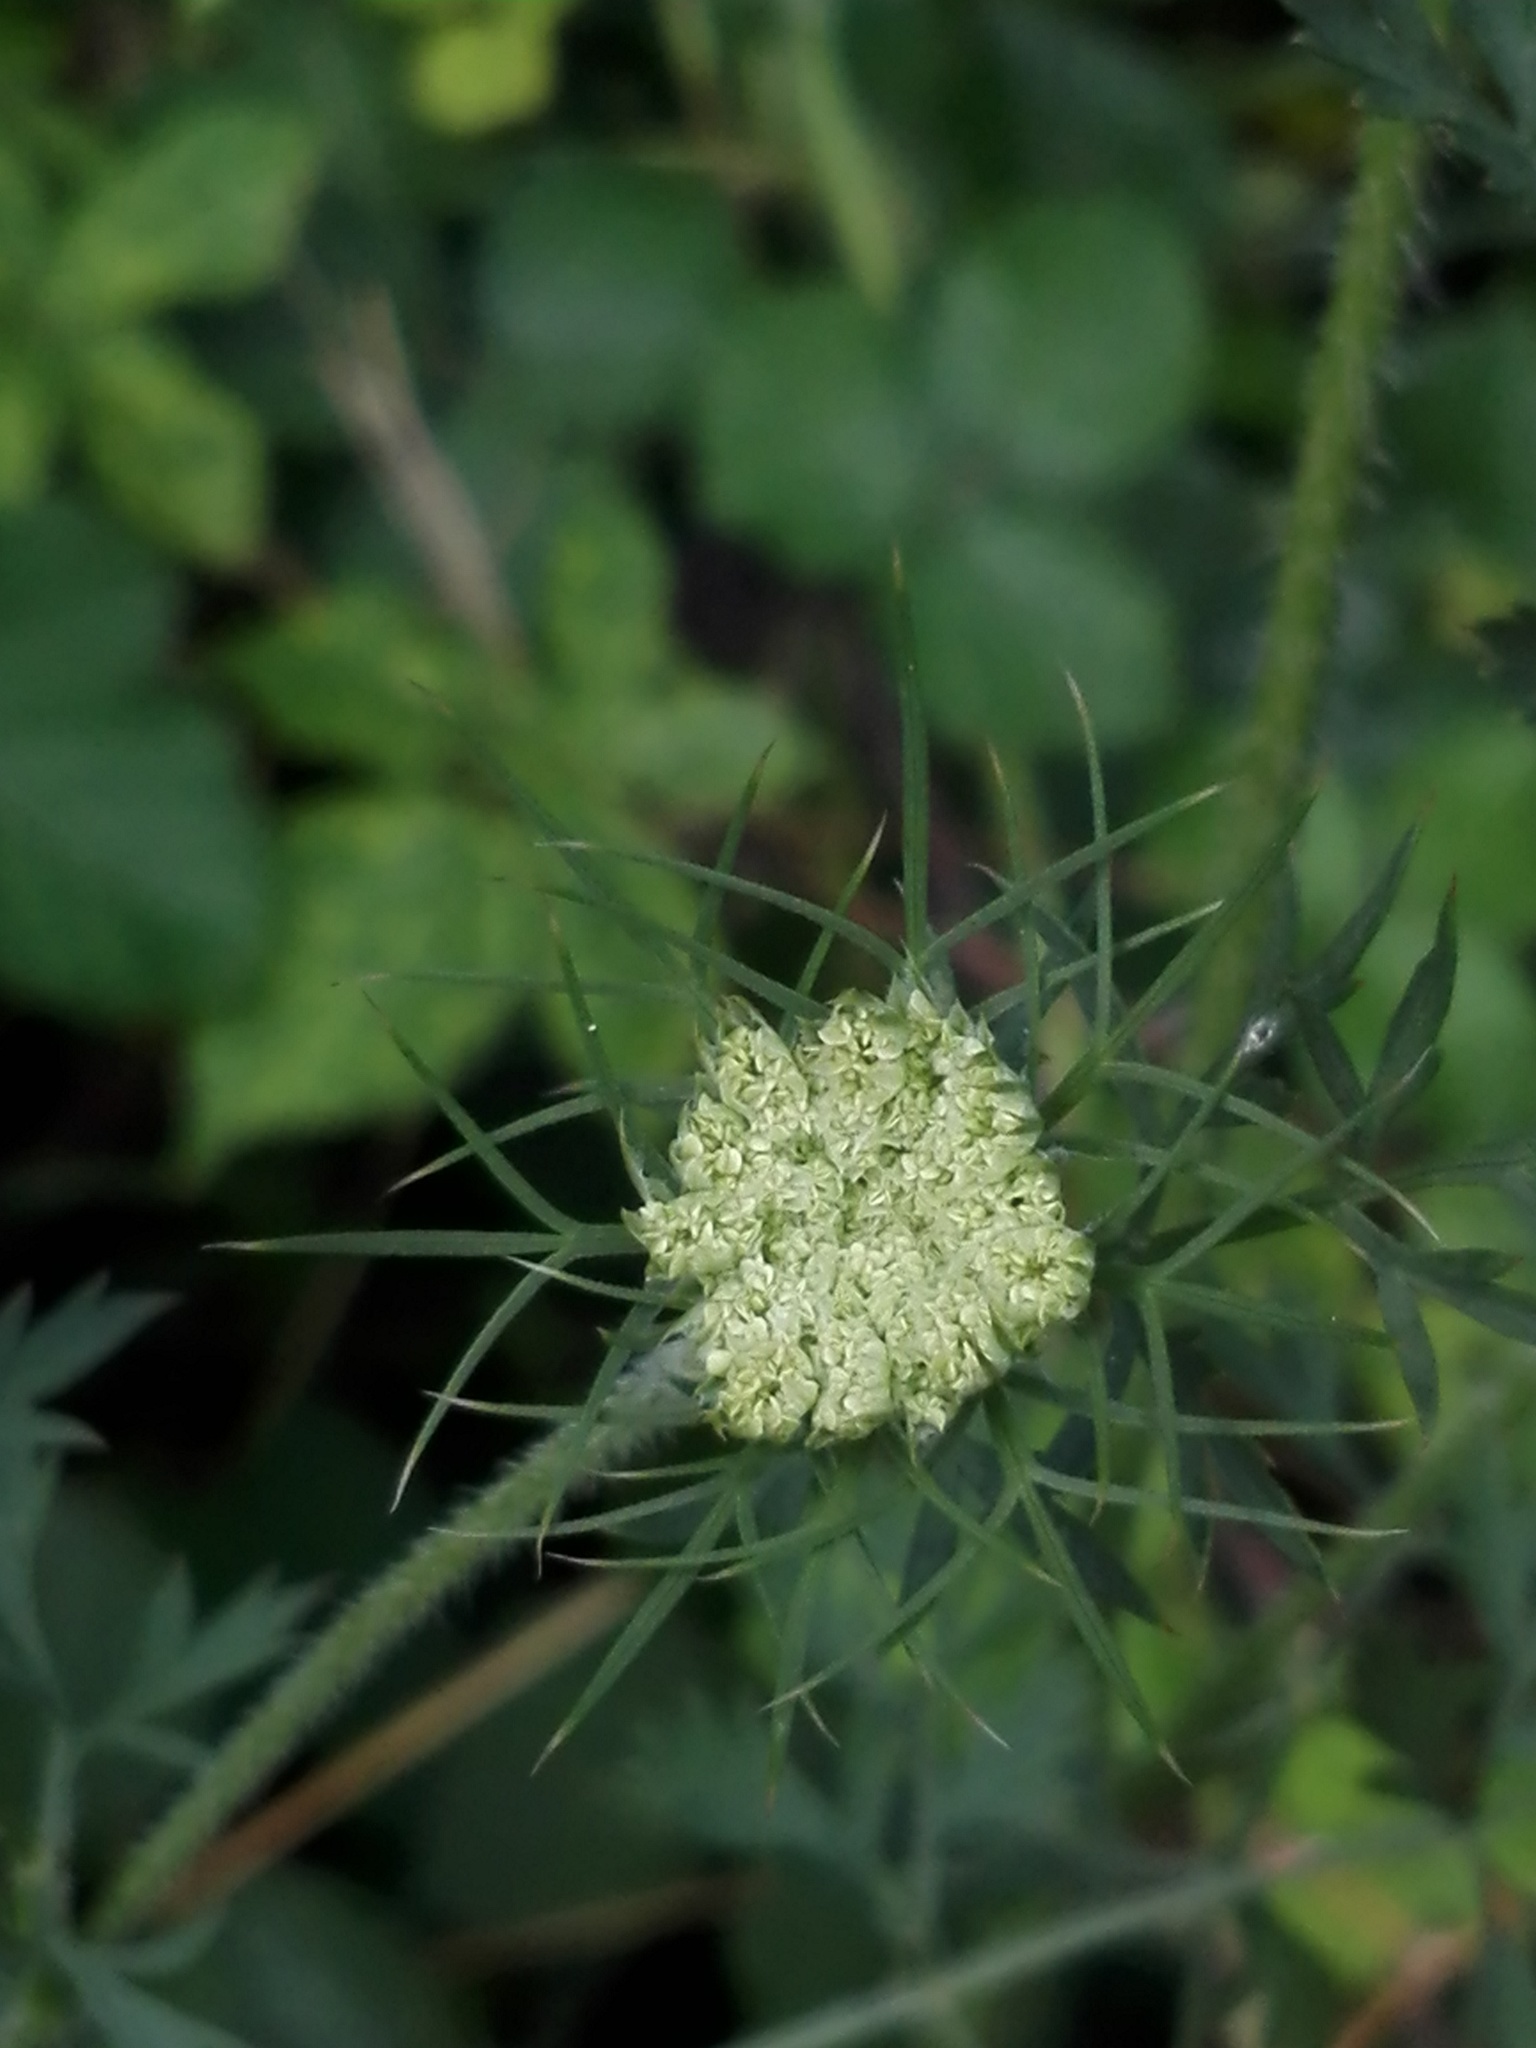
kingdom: Plantae
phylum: Tracheophyta
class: Magnoliopsida
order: Apiales
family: Apiaceae
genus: Daucus
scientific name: Daucus carota
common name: Wild carrot
